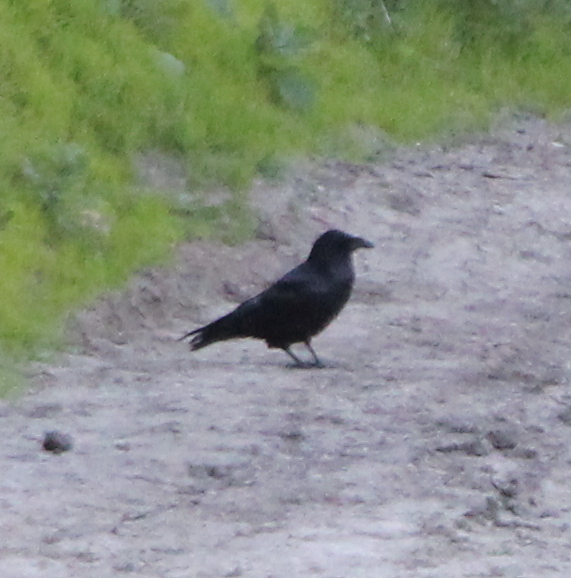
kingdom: Animalia
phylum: Chordata
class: Aves
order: Passeriformes
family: Corvidae
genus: Corvus
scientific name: Corvus corax
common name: Common raven
